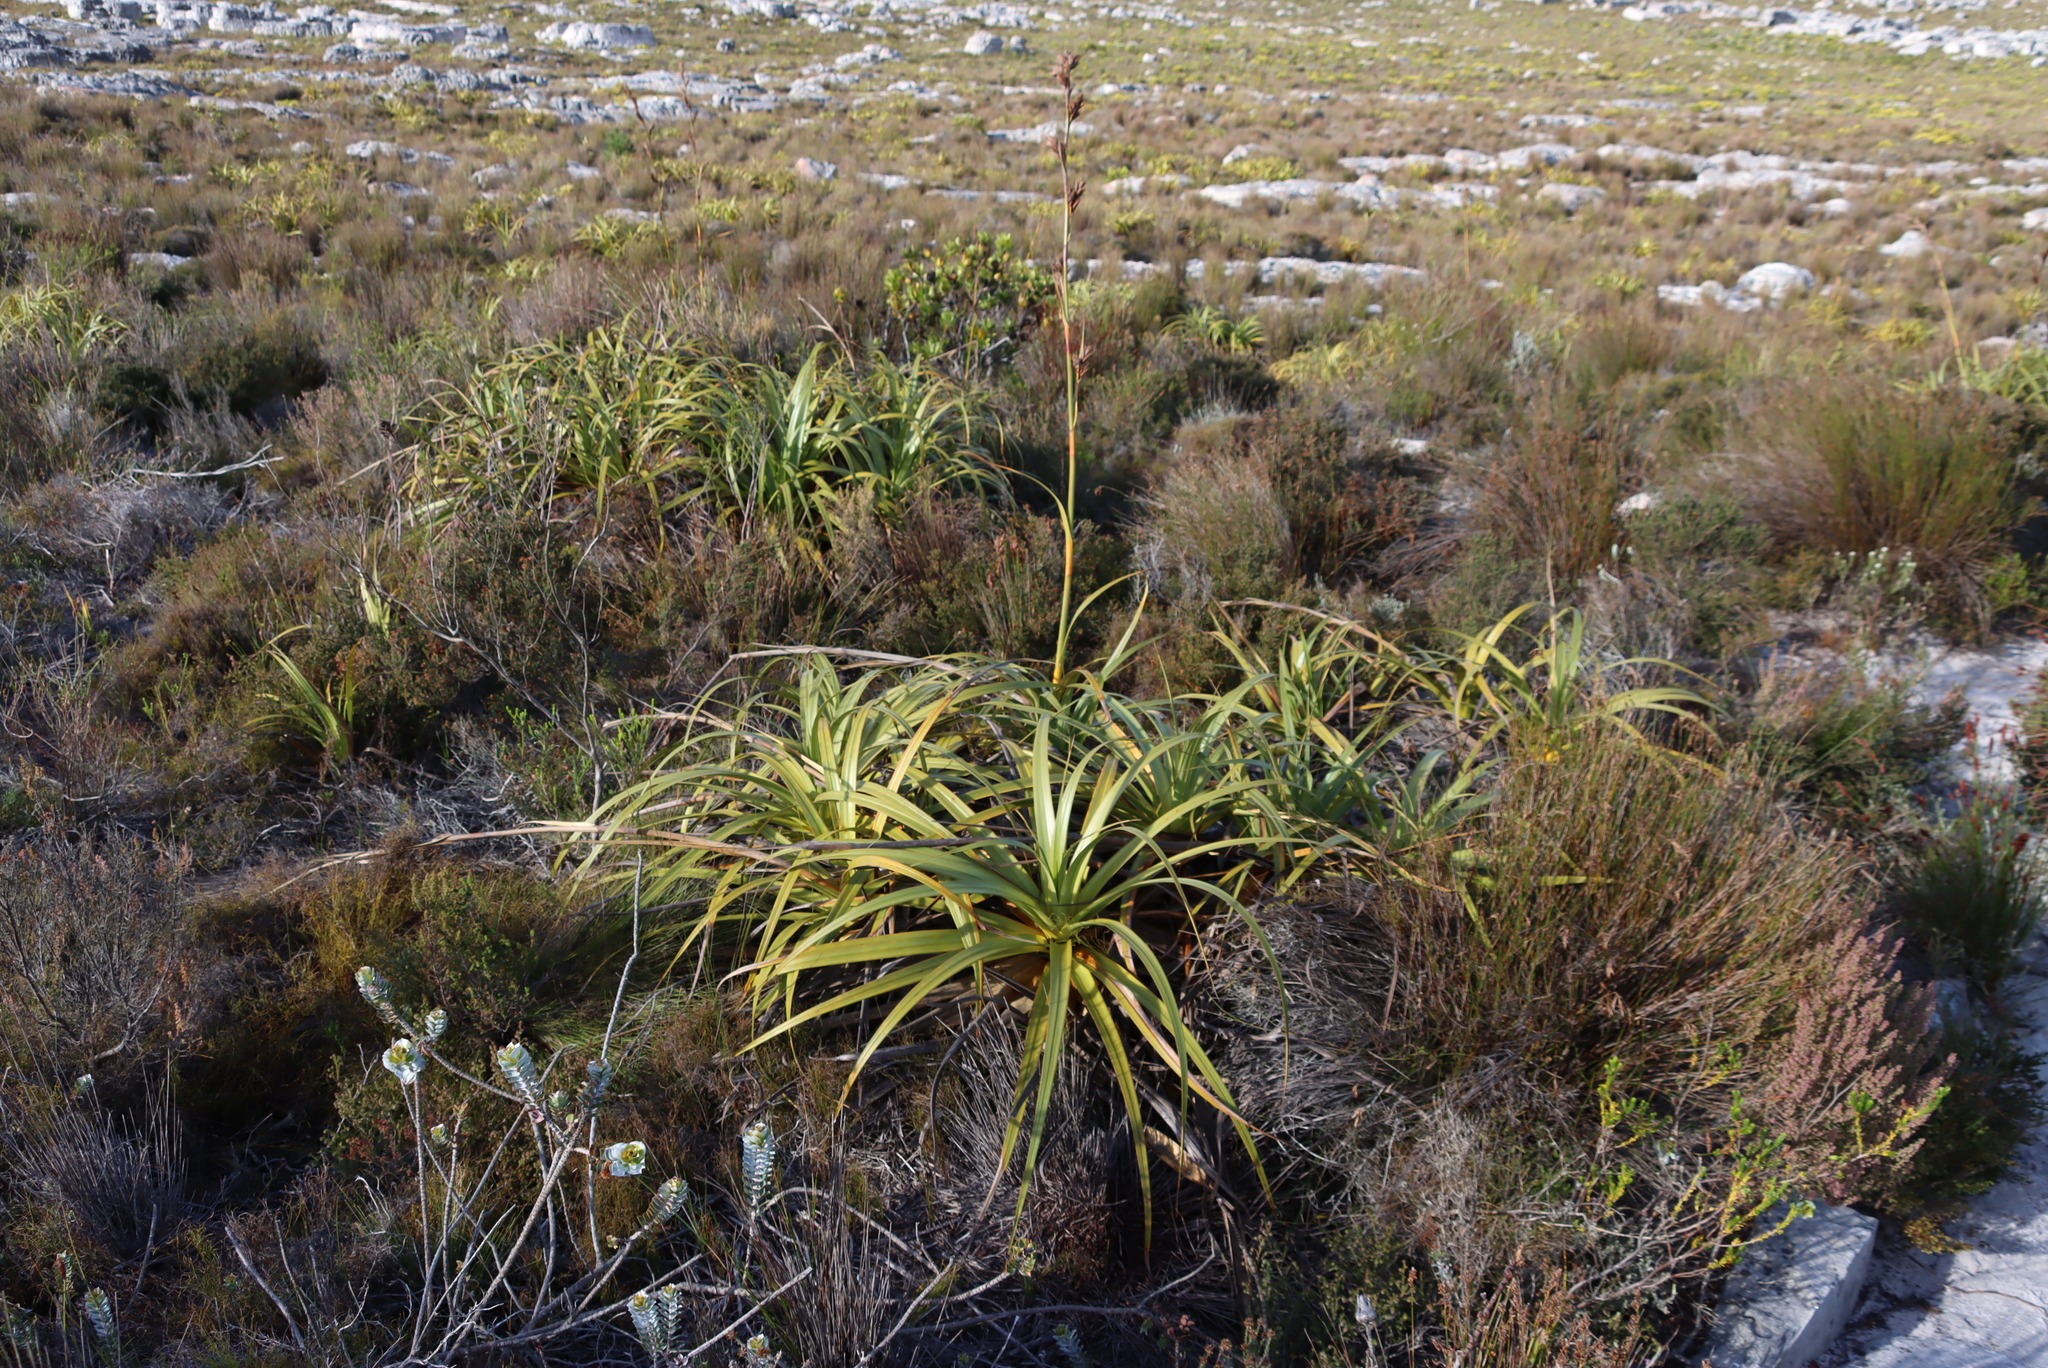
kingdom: Plantae
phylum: Tracheophyta
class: Liliopsida
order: Poales
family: Cyperaceae
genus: Tetraria
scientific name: Tetraria thermalis
